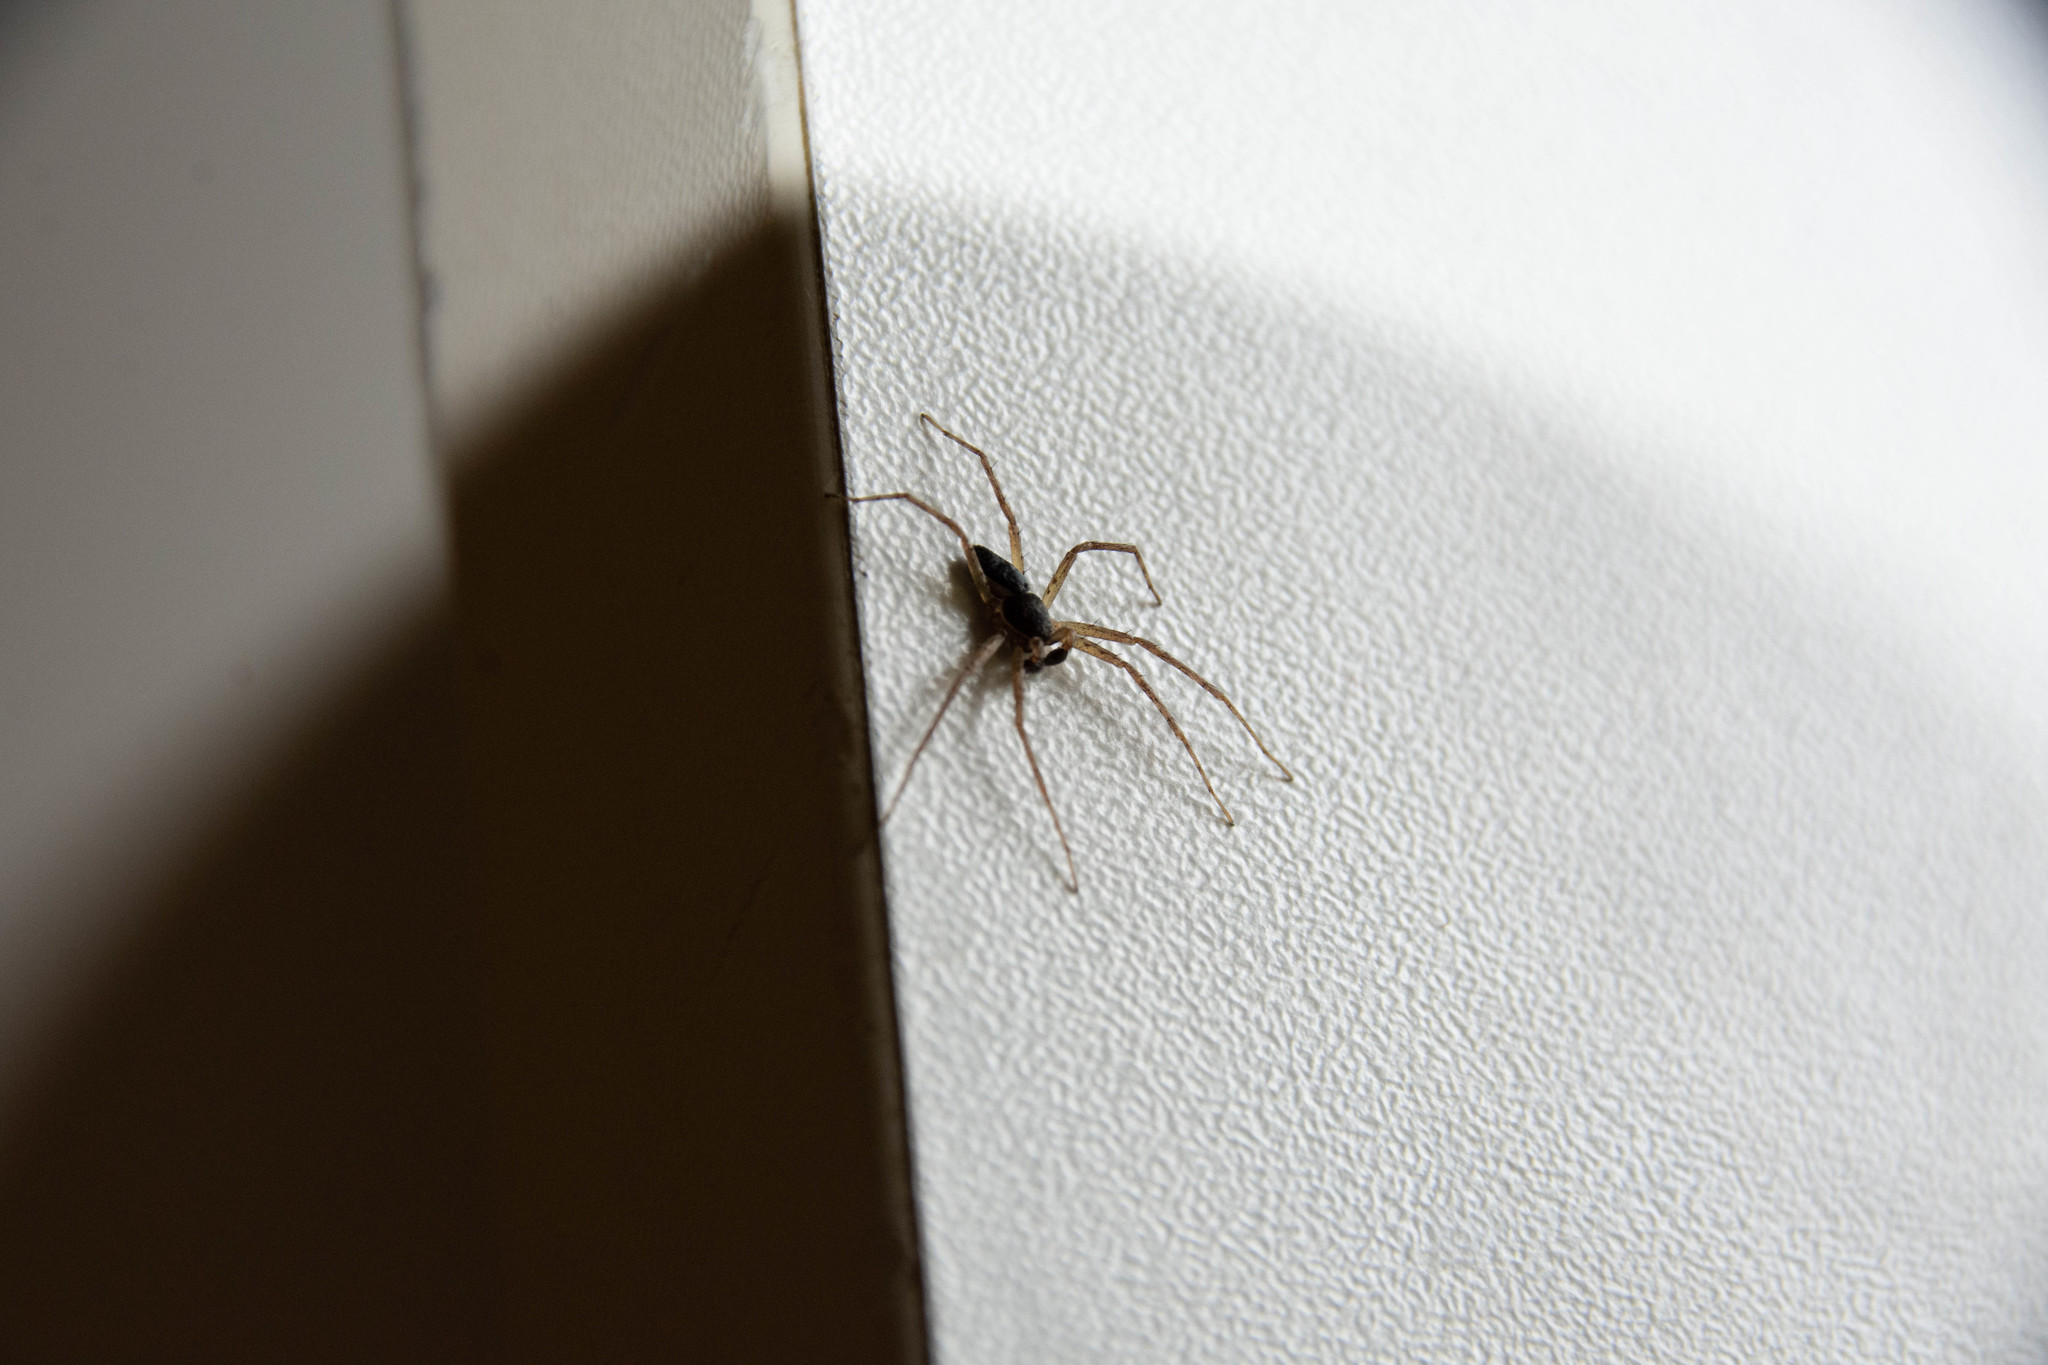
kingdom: Animalia
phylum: Arthropoda
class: Arachnida
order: Araneae
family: Philodromidae
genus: Philodromus
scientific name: Philodromus dispar
